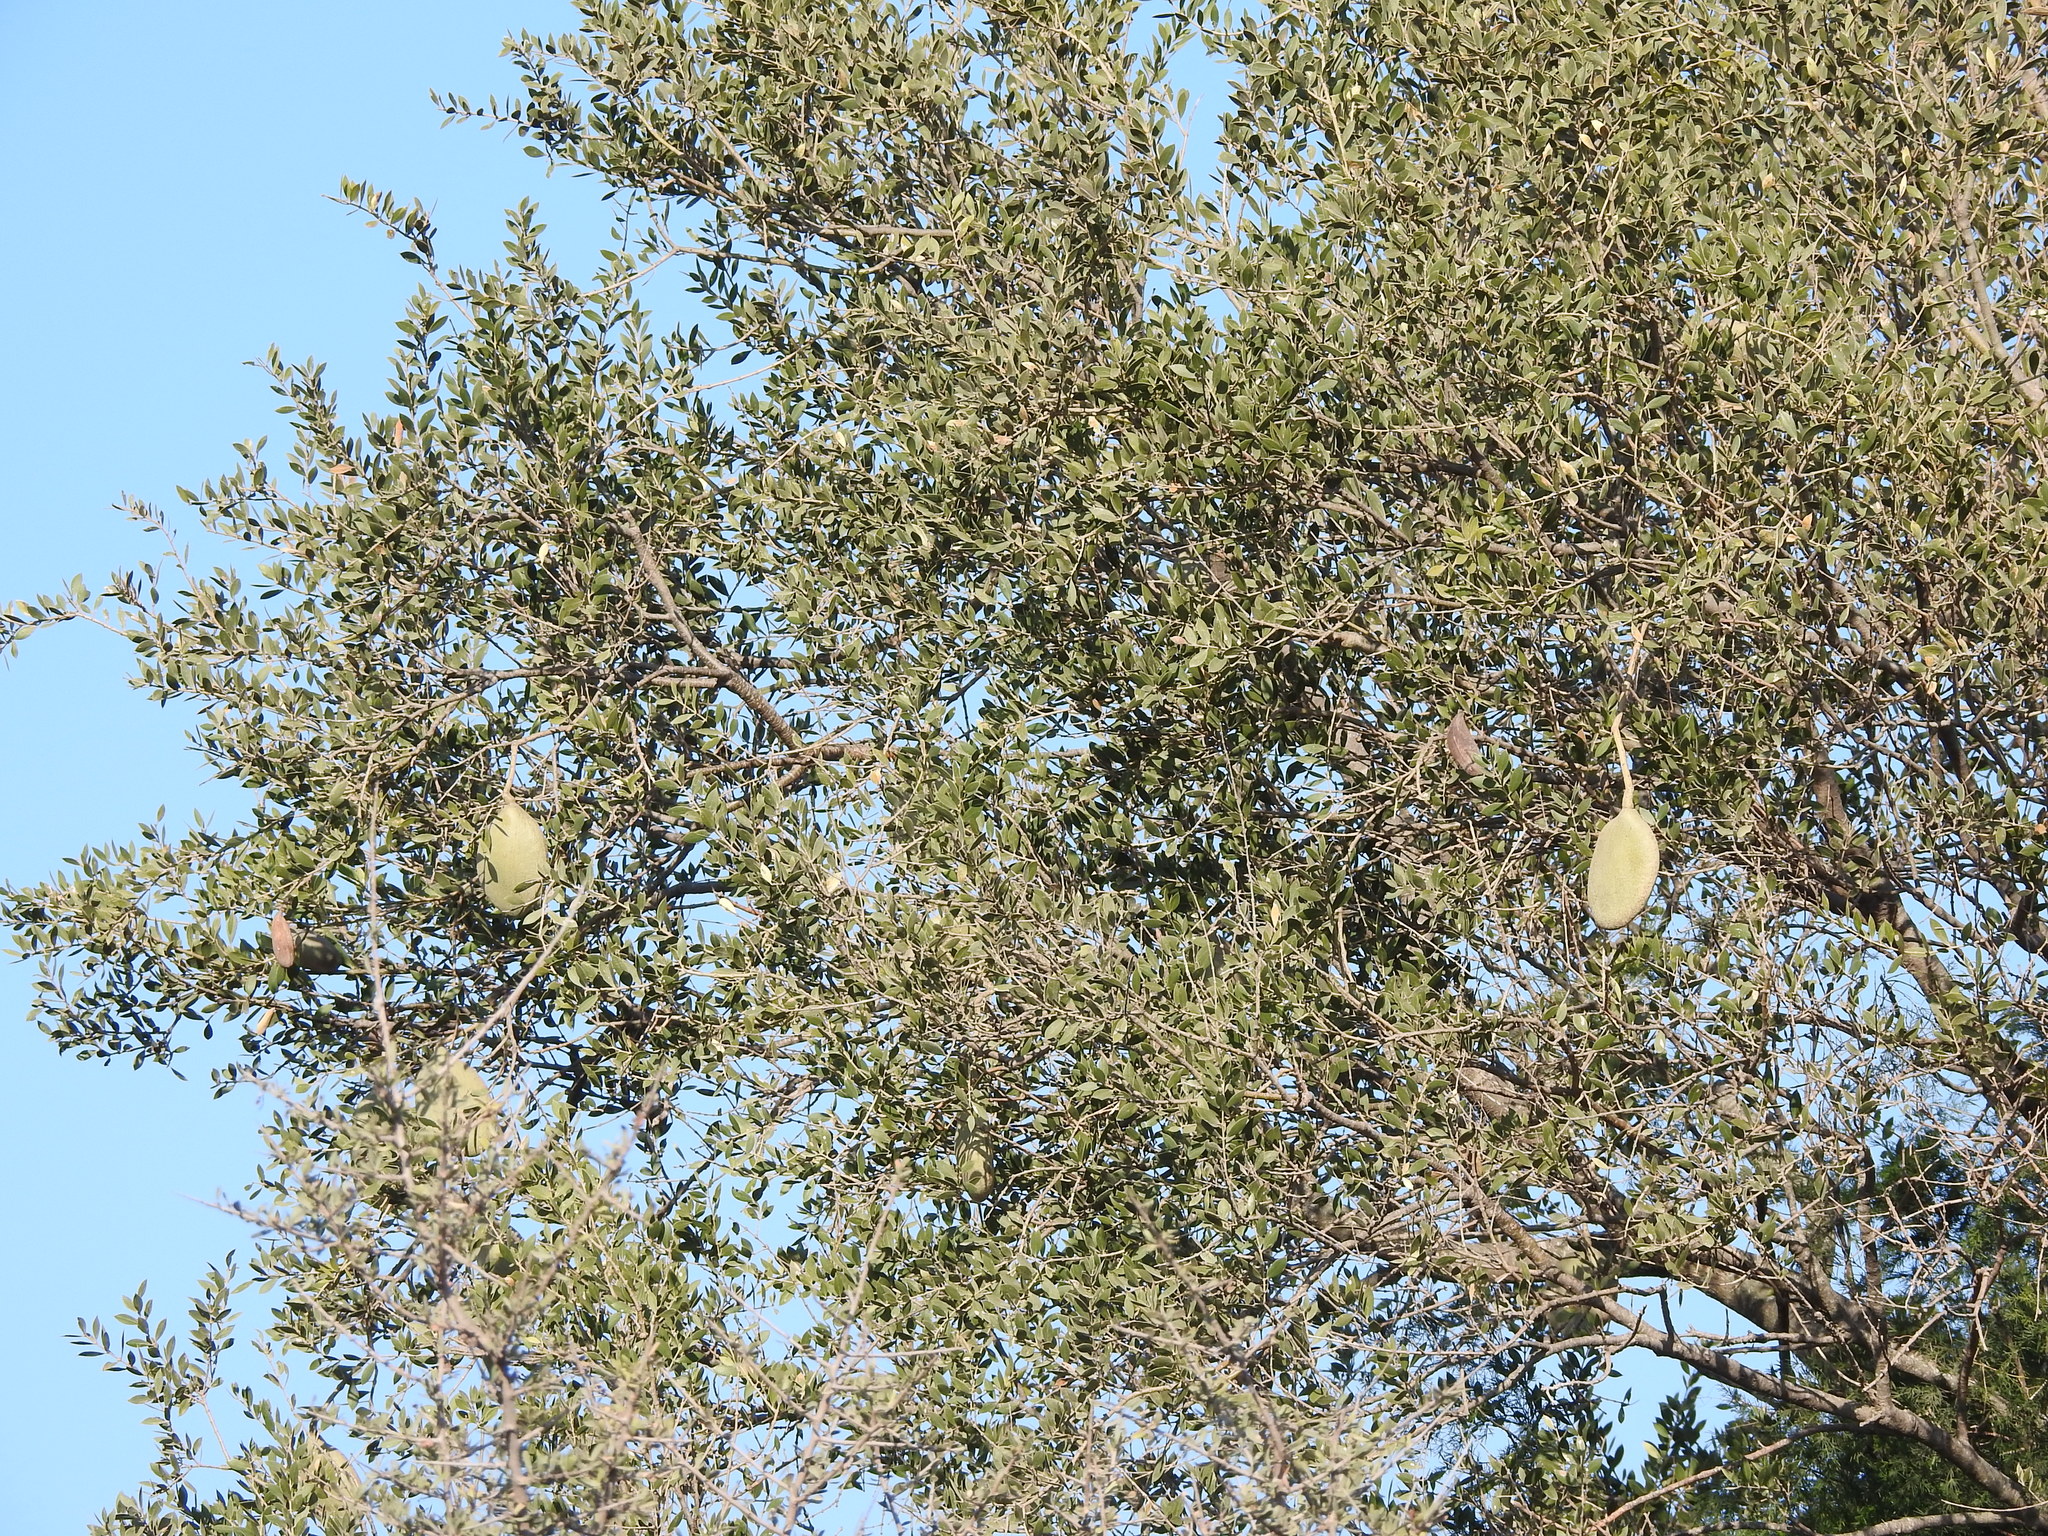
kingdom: Plantae
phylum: Tracheophyta
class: Magnoliopsida
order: Gentianales
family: Apocynaceae
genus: Aspidosperma
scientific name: Aspidosperma quebracho-blanco
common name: White quebracho
